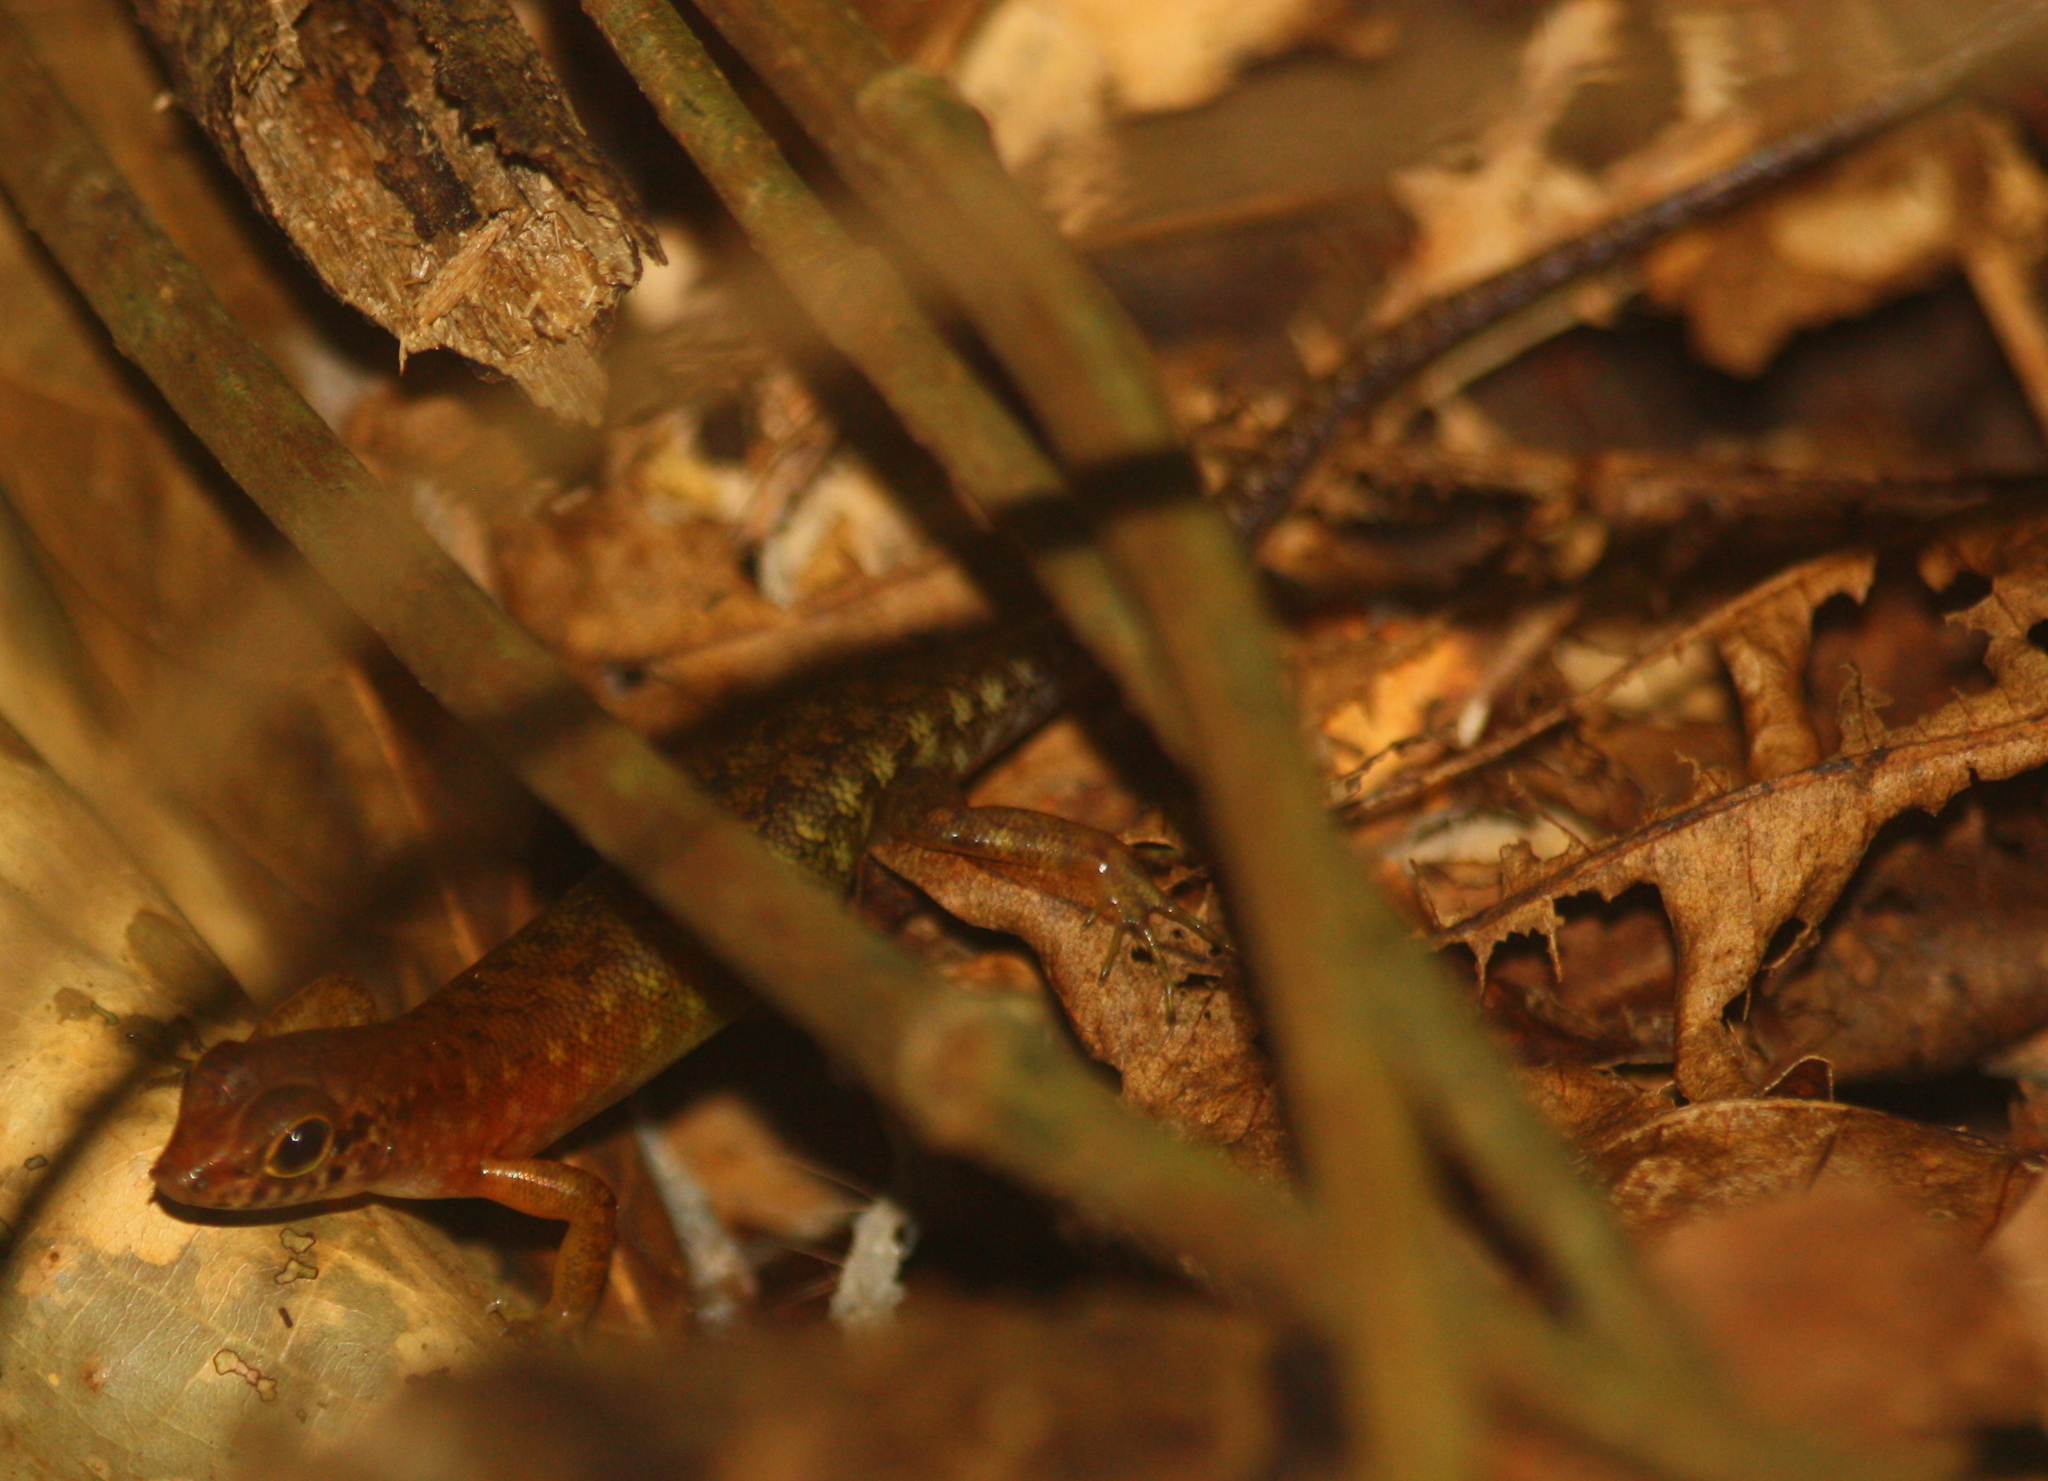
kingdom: Animalia
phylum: Chordata
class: Squamata
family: Scincidae
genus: Sphenomorphus
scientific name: Sphenomorphus sabanus
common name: Sabah slender skink
